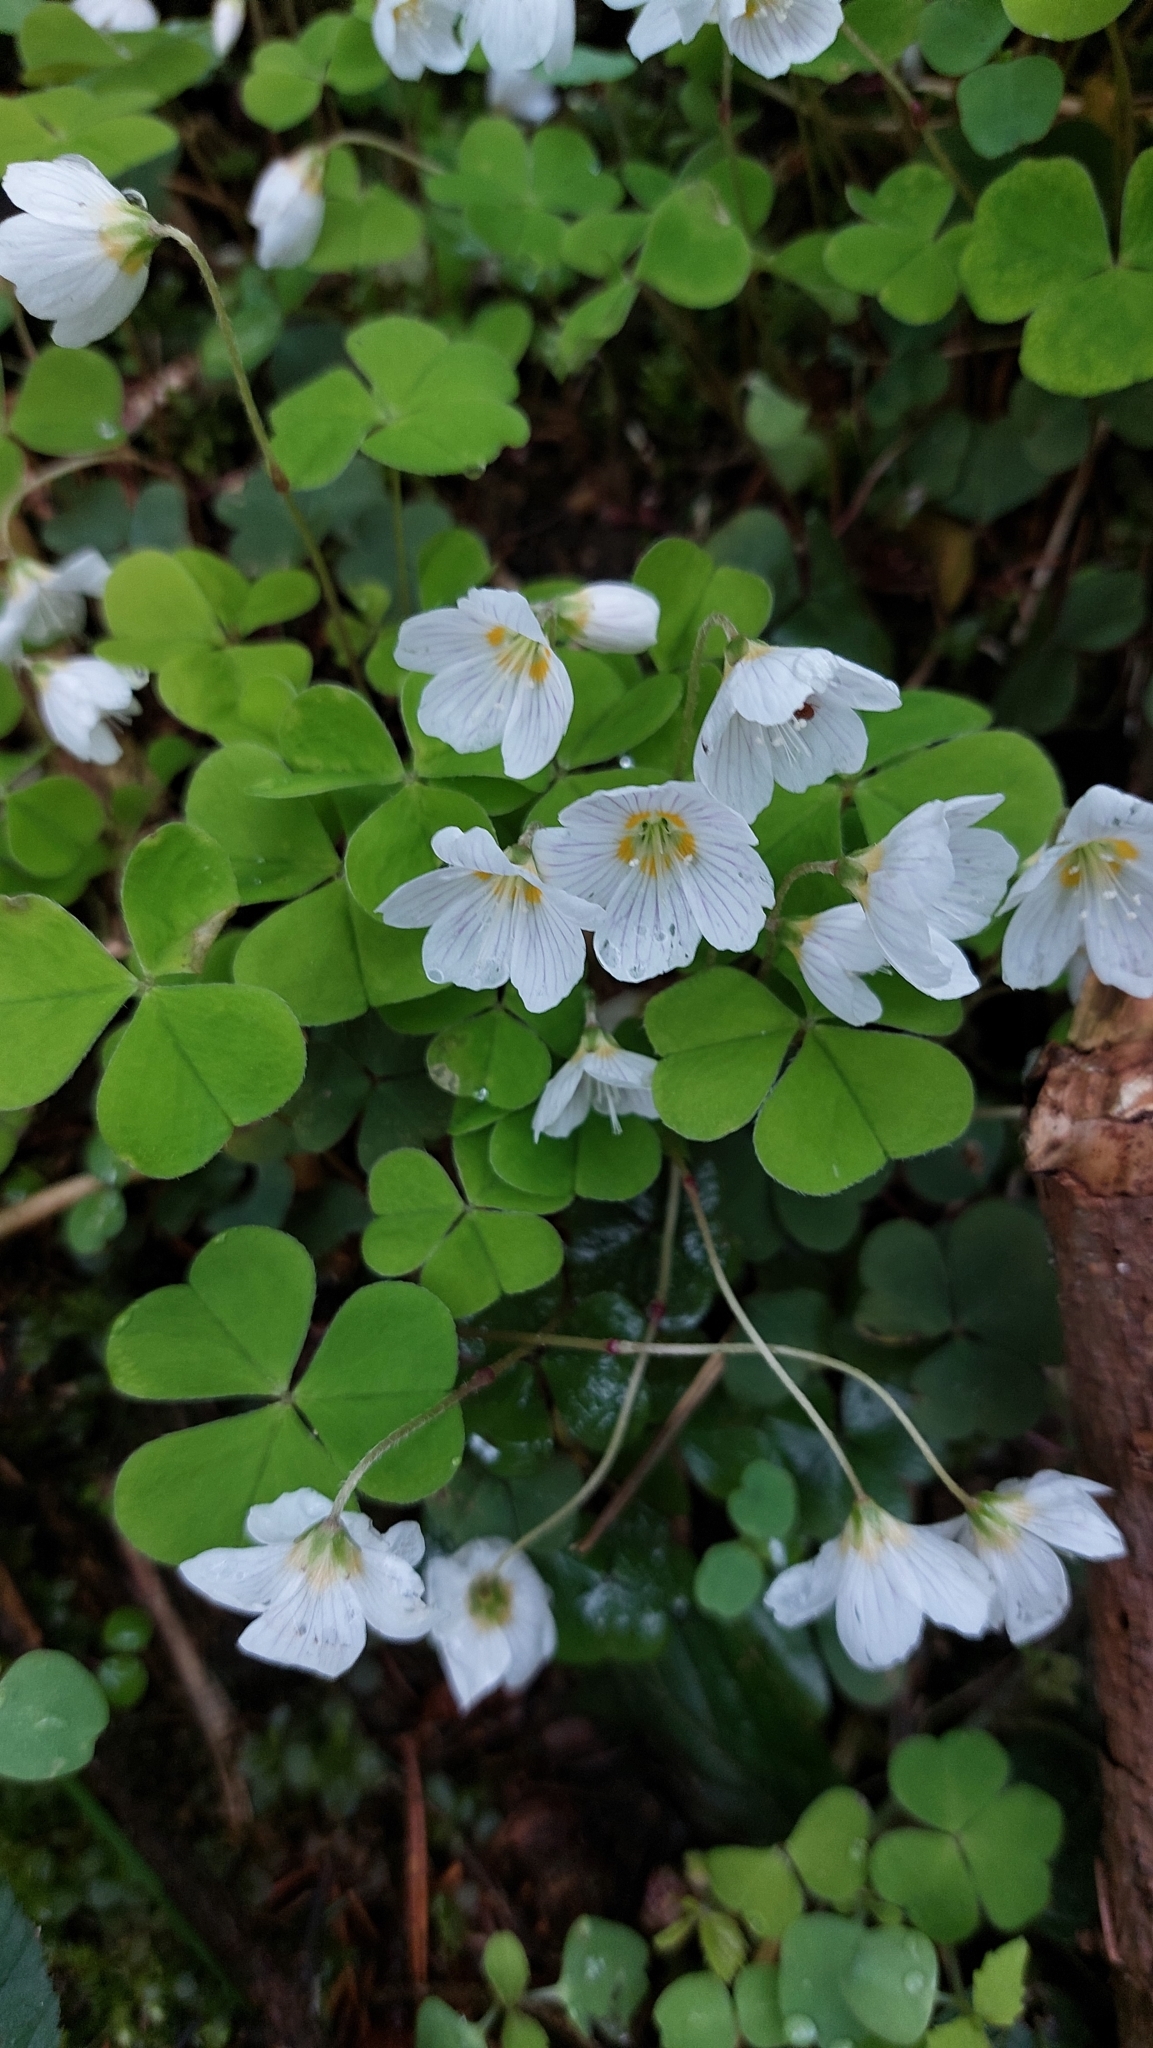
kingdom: Plantae
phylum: Tracheophyta
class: Magnoliopsida
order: Oxalidales
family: Oxalidaceae
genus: Oxalis
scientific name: Oxalis acetosella
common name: Wood-sorrel
